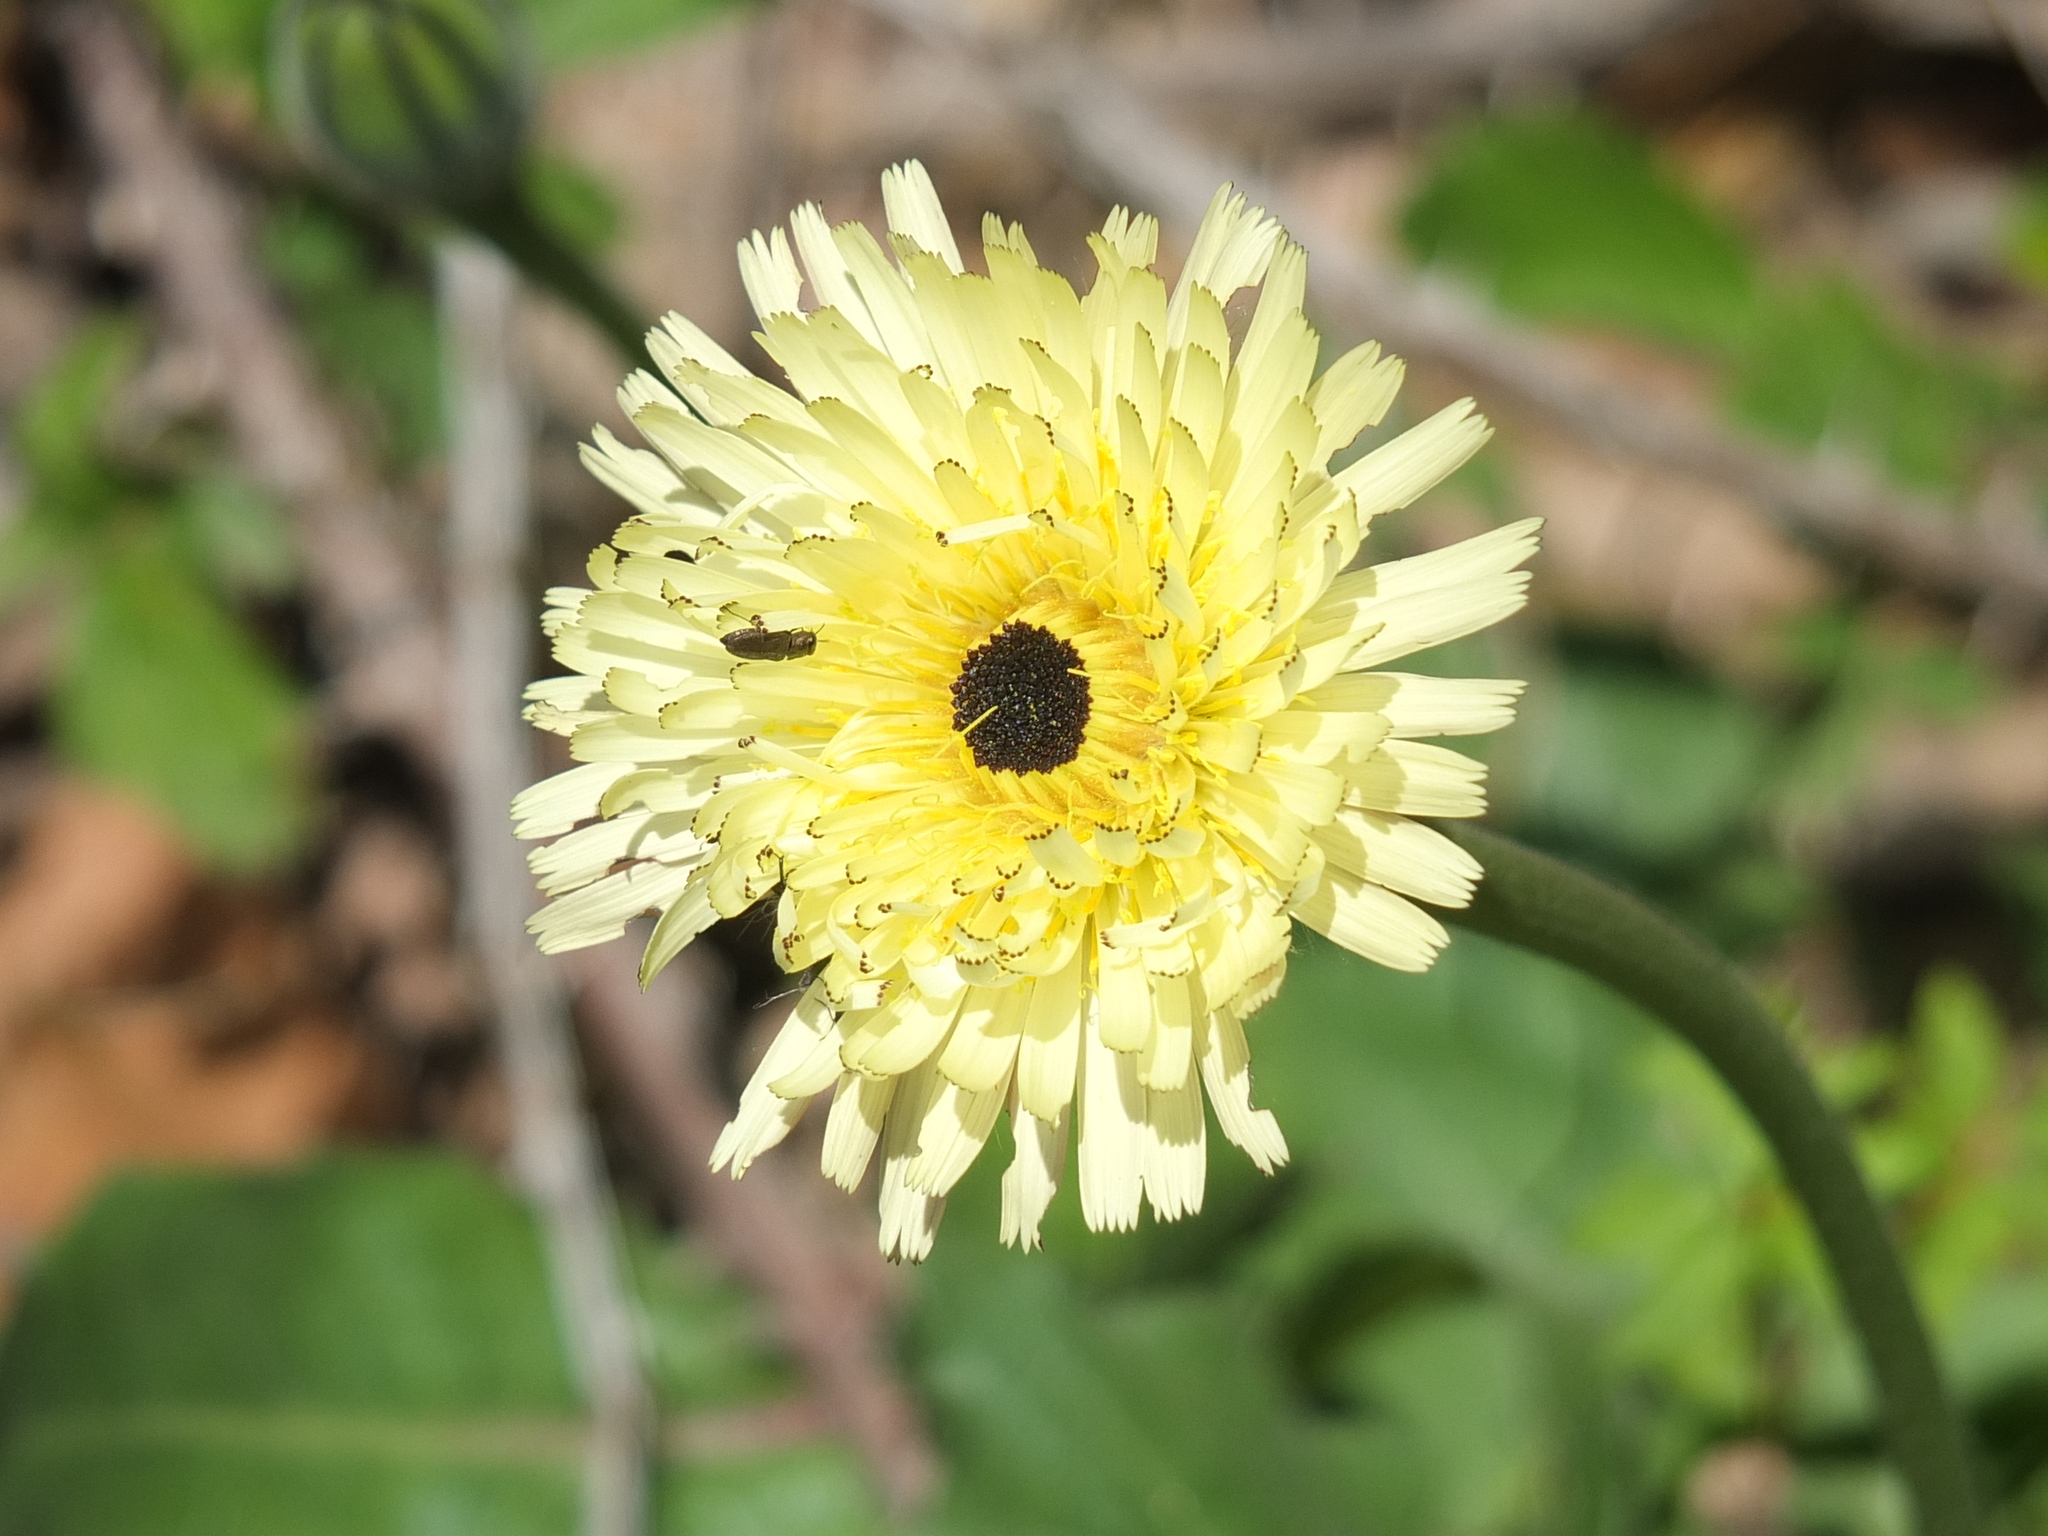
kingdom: Plantae
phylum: Tracheophyta
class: Magnoliopsida
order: Asterales
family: Asteraceae
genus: Urospermum
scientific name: Urospermum dalechampii
